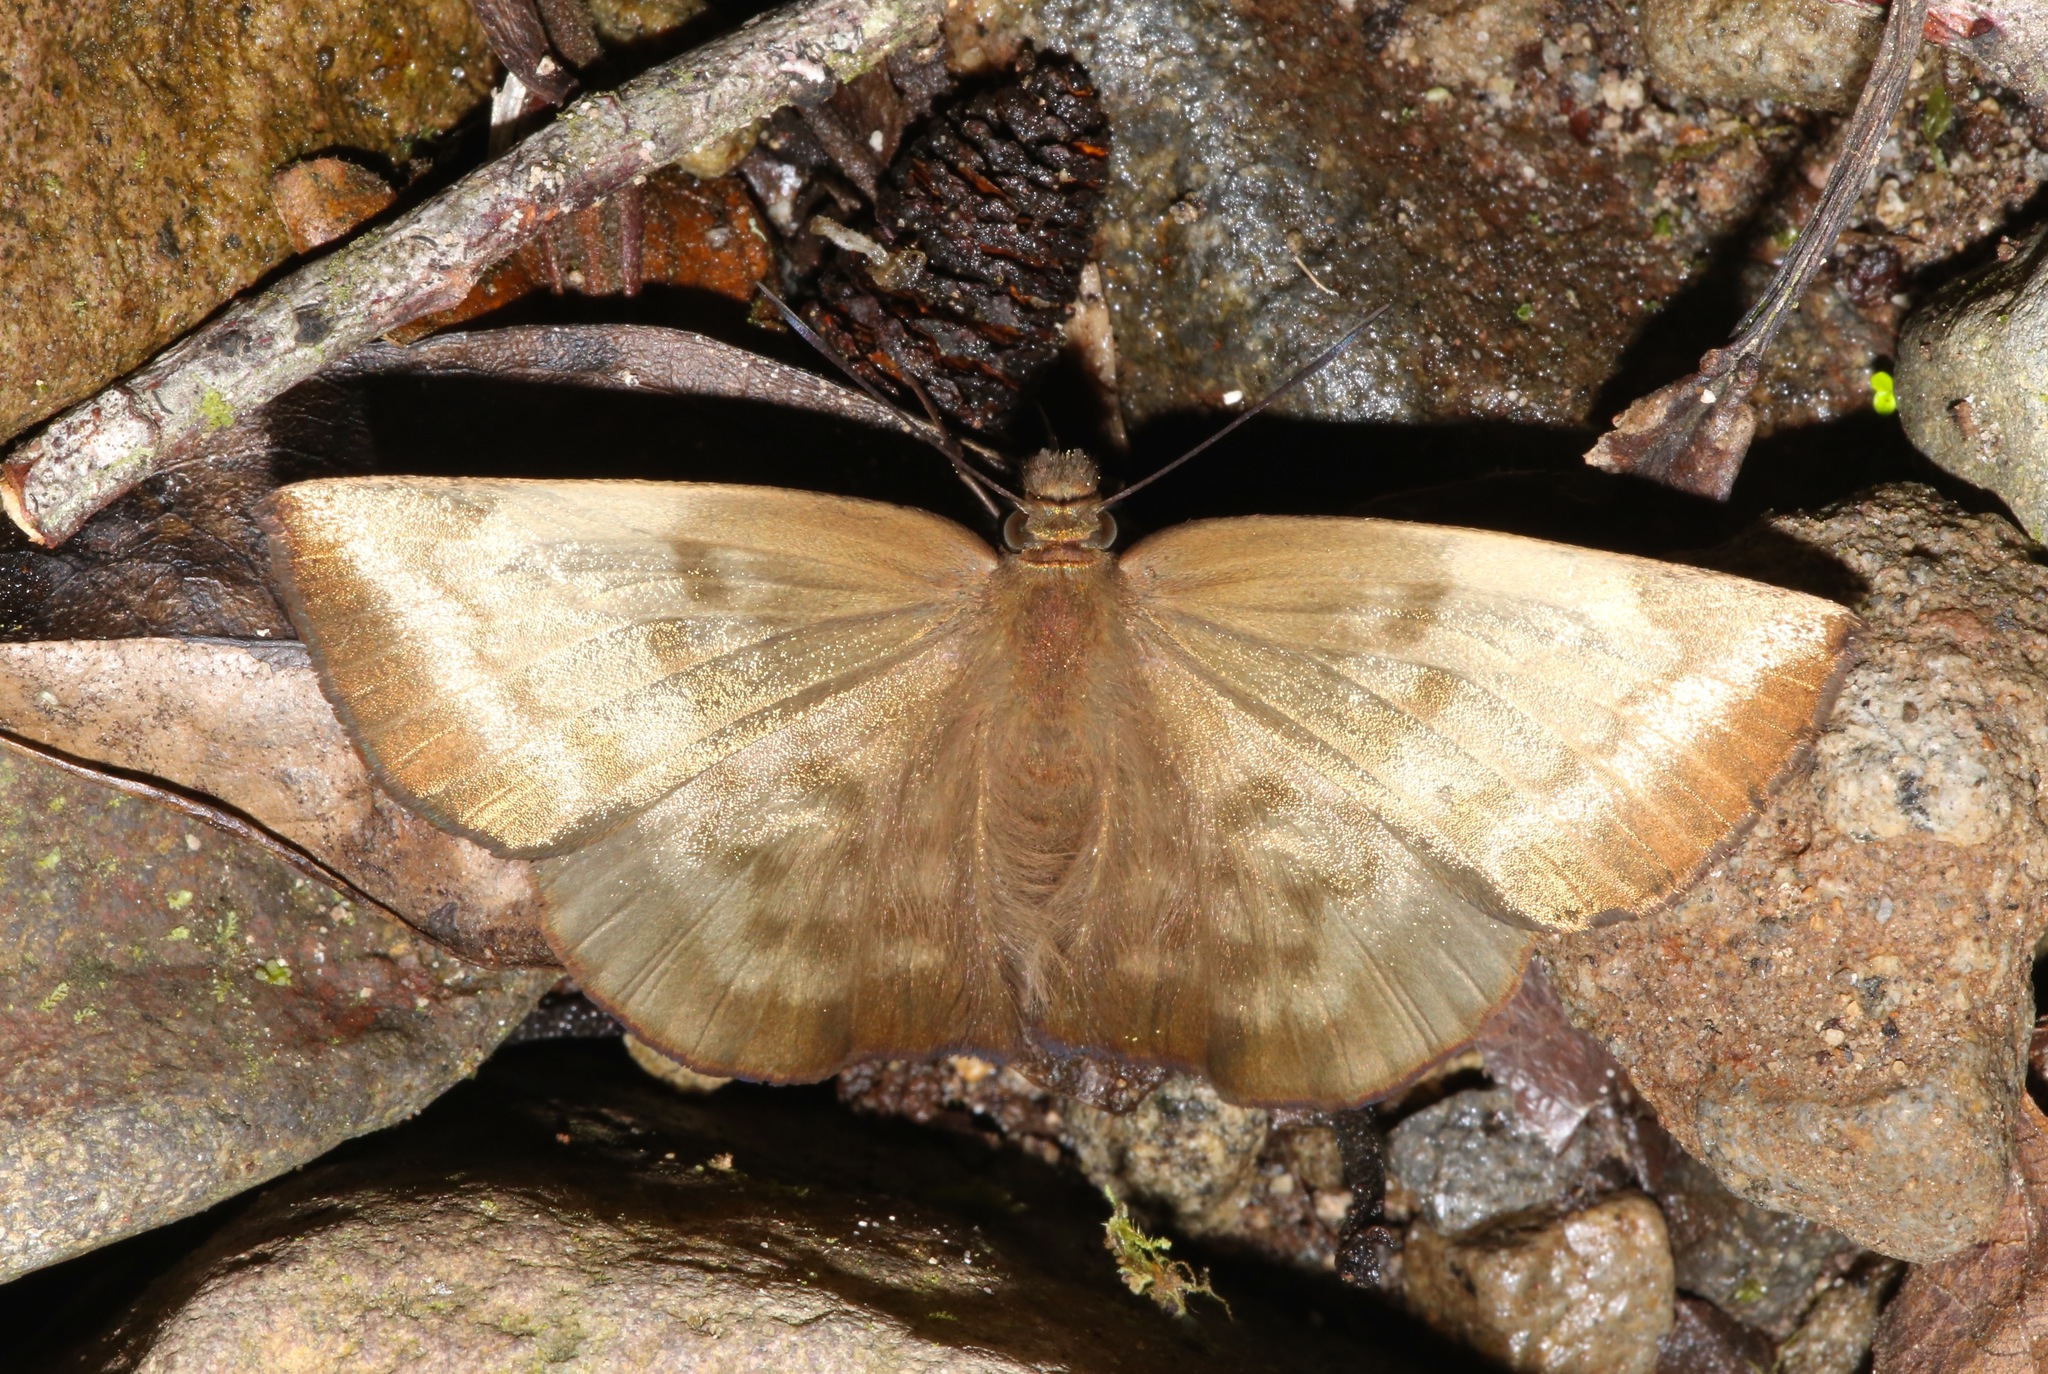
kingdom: Animalia
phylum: Arthropoda
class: Insecta
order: Lepidoptera
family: Hesperiidae
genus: Achlyodes
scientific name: Achlyodes pallida
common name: Pale sicklewing
